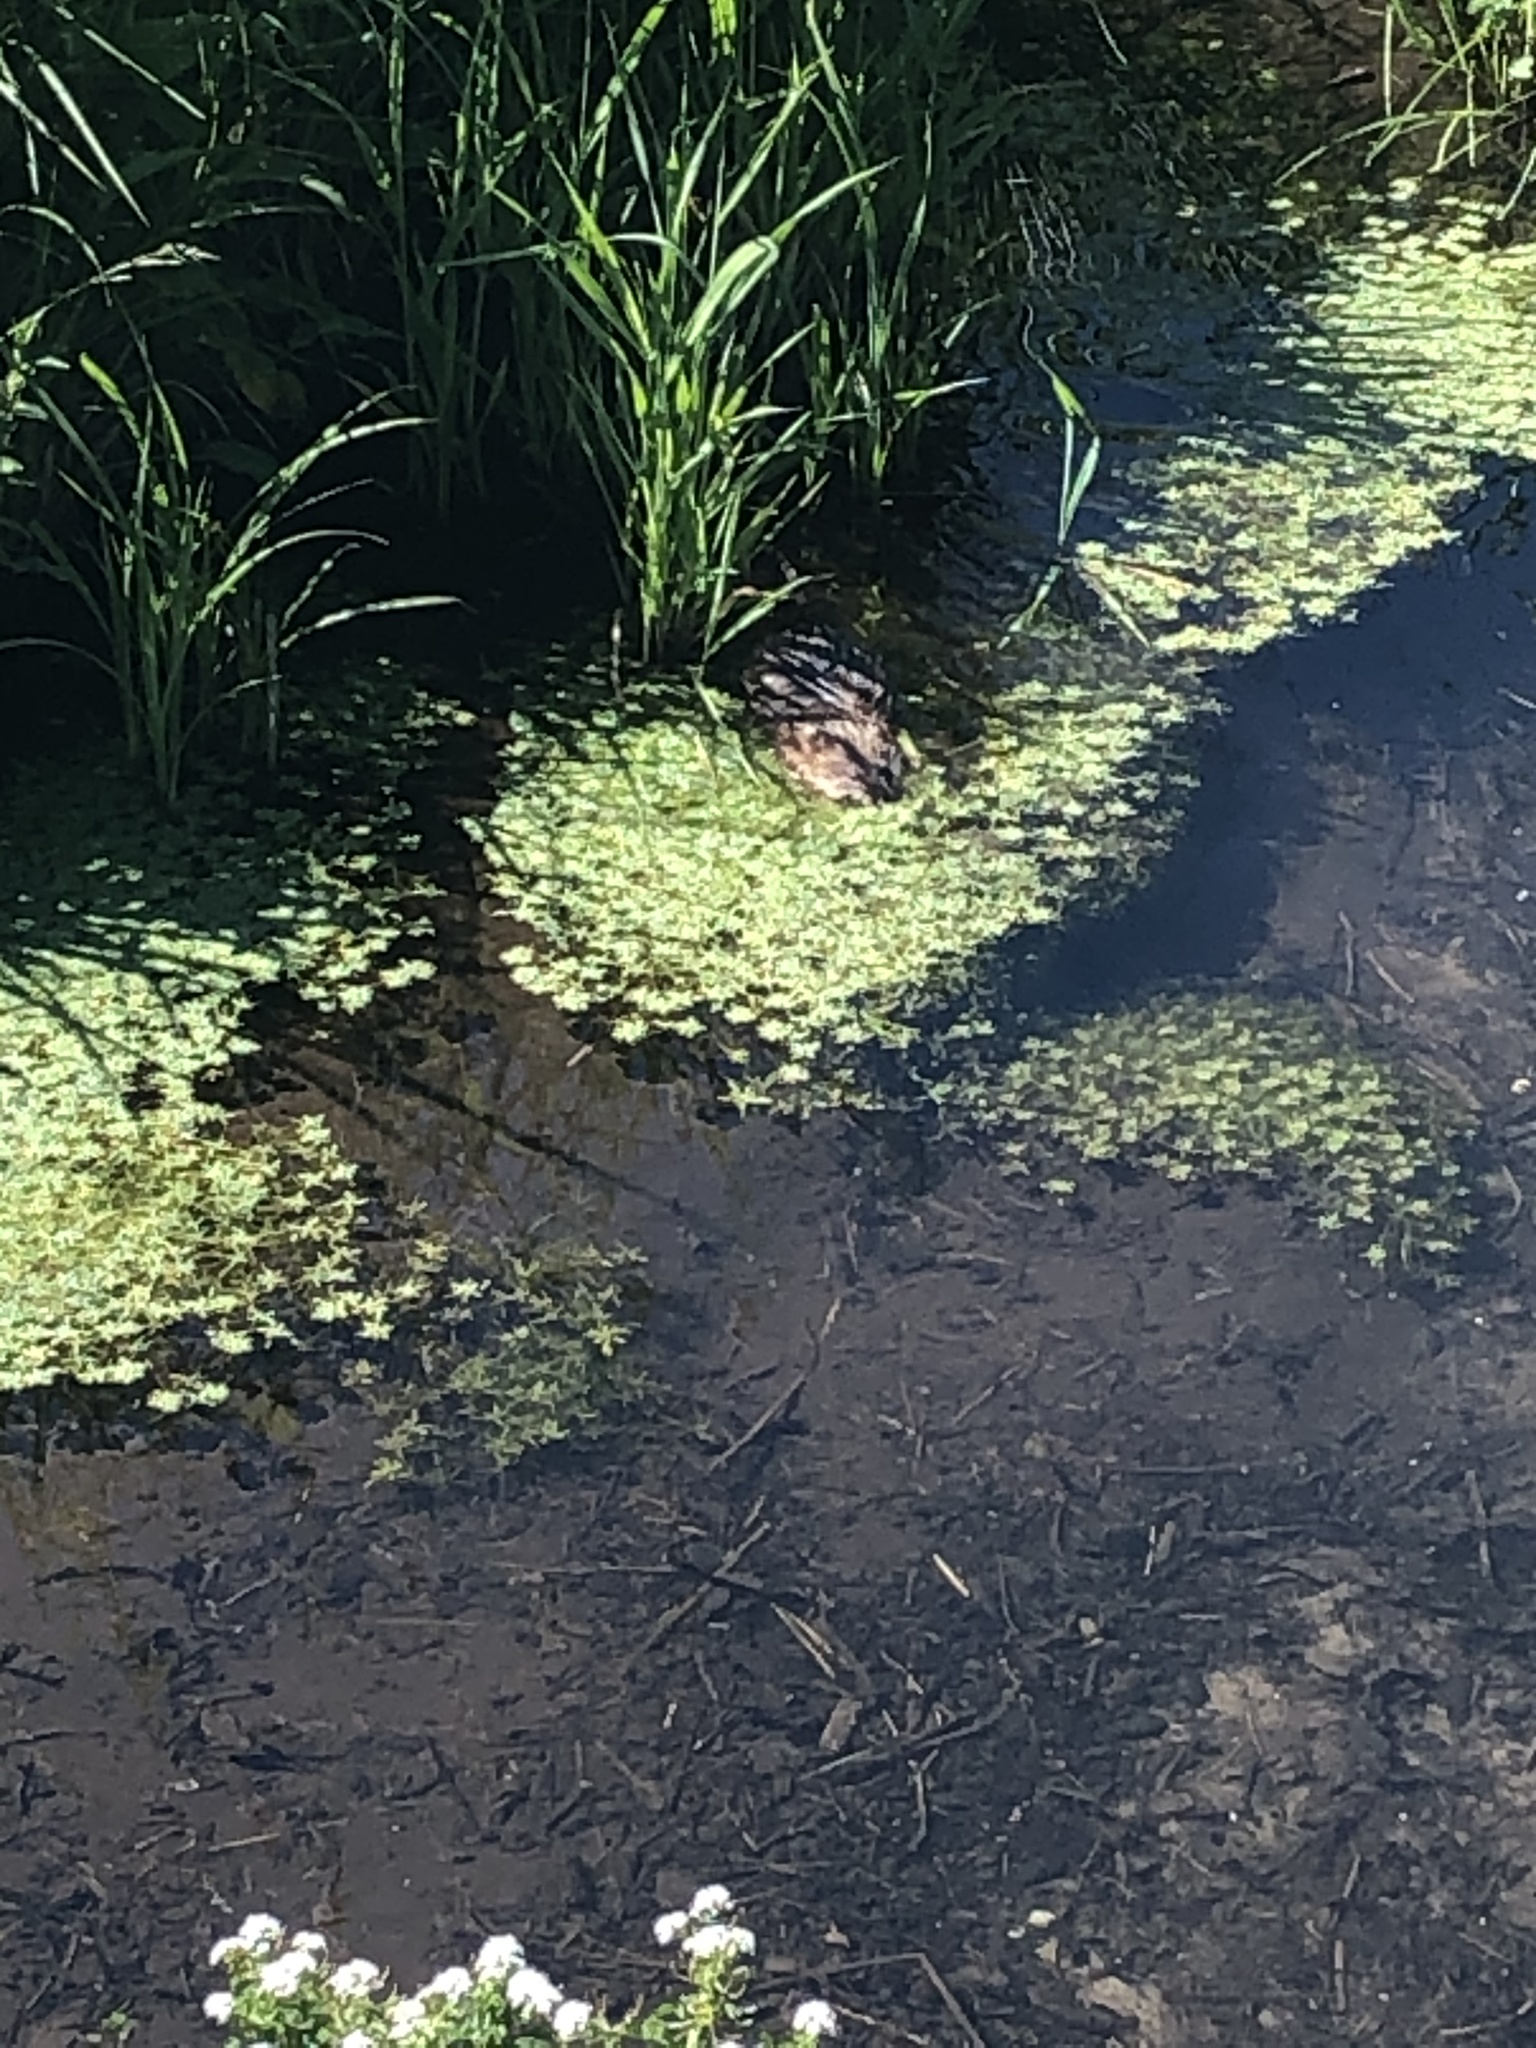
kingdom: Animalia
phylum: Chordata
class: Mammalia
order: Rodentia
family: Cricetidae
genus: Ondatra
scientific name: Ondatra zibethicus
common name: Muskrat
